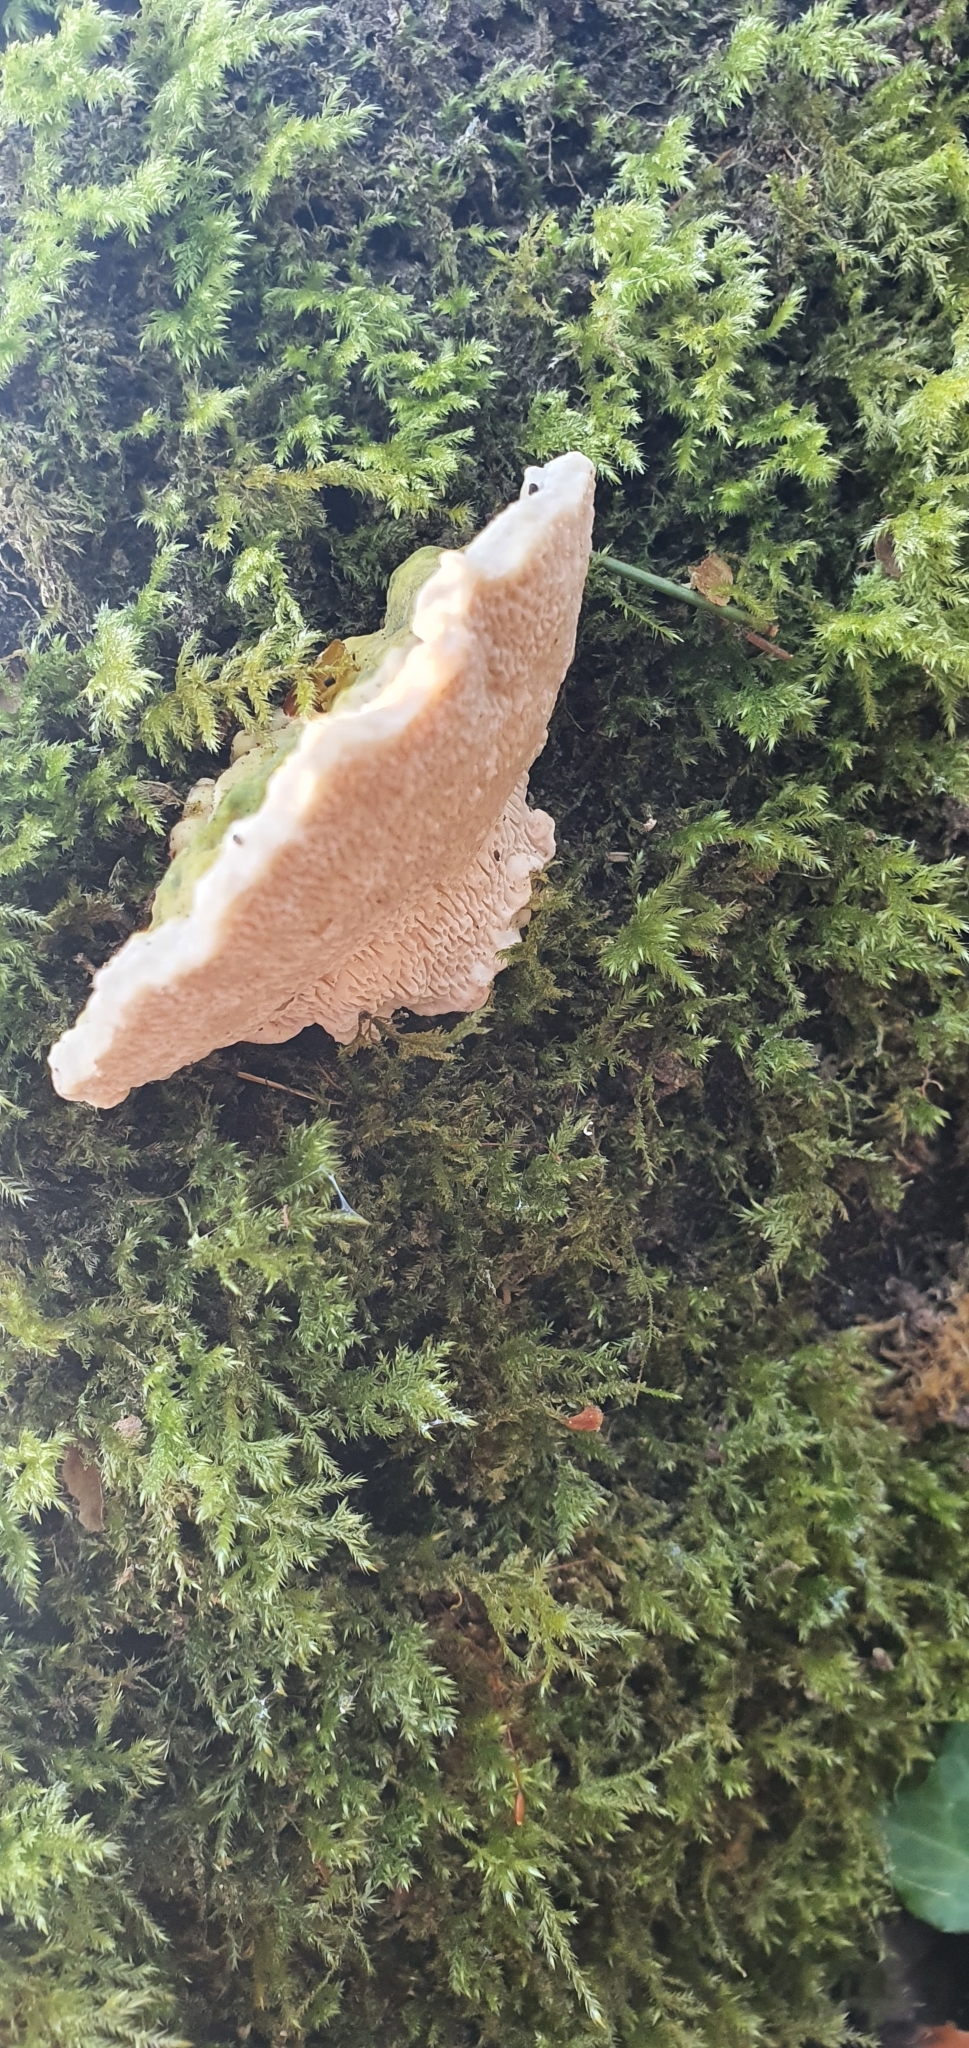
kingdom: Fungi
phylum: Basidiomycota
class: Agaricomycetes
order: Polyporales
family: Polyporaceae
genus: Trametes
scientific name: Trametes gibbosa
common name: Lumpy bracket
